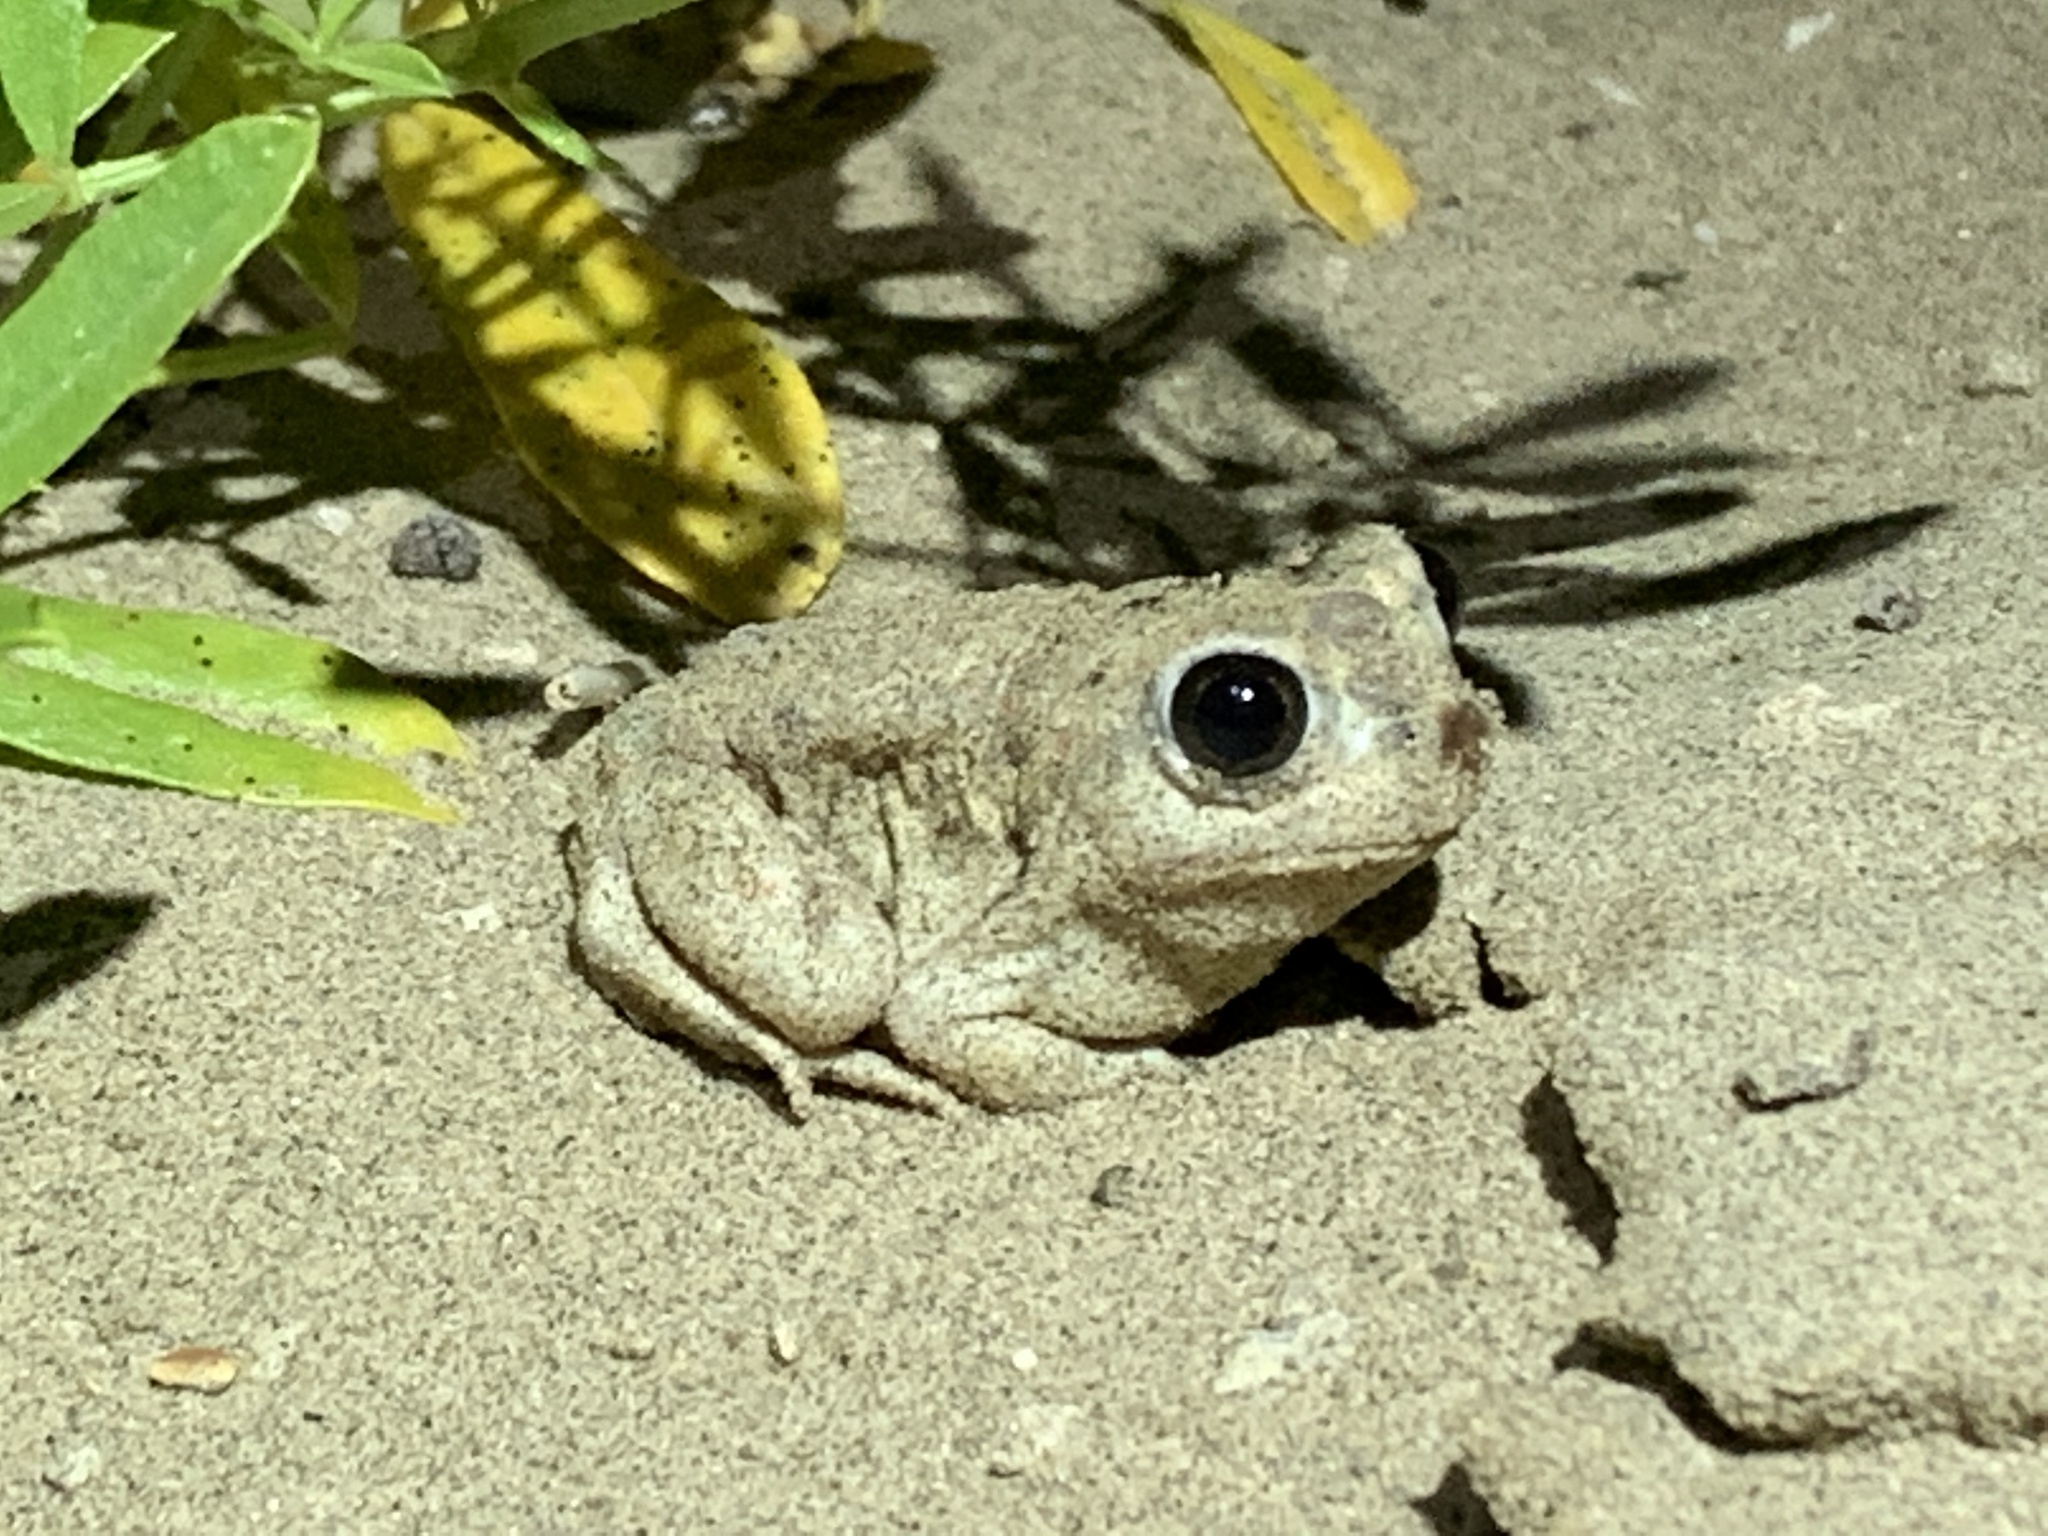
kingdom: Animalia
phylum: Chordata
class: Amphibia
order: Anura
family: Scaphiopodidae
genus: Spea
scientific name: Spea bombifrons
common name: Plains spadefoot
